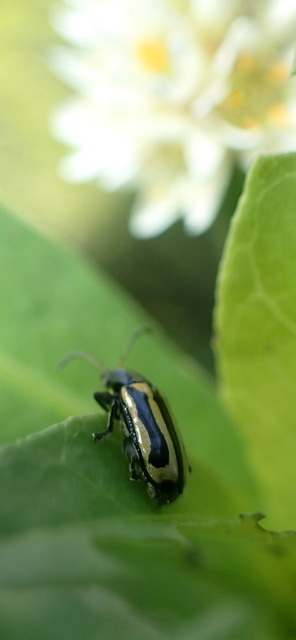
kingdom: Animalia
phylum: Arthropoda
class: Insecta
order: Coleoptera
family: Chrysomelidae
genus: Agasicles
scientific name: Agasicles hygrophila
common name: Alligatorweed flea beetle
